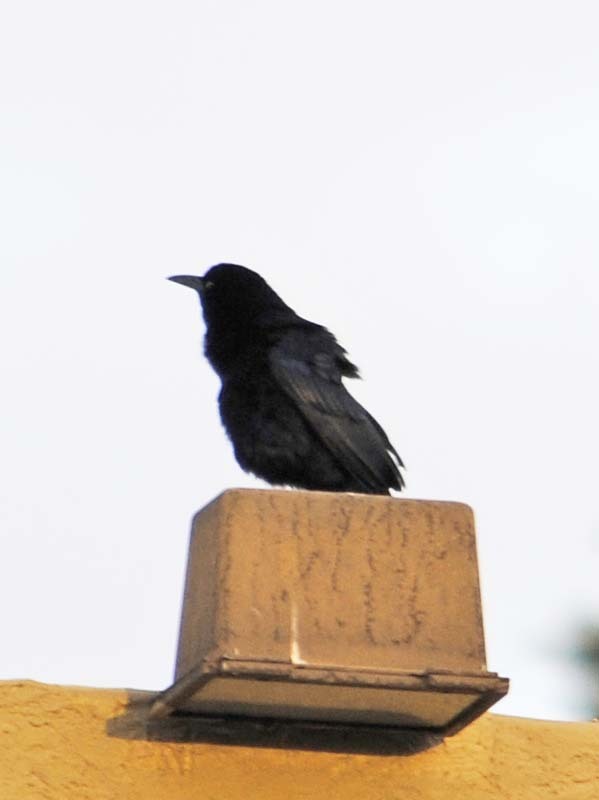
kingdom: Animalia
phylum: Chordata
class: Aves
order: Passeriformes
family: Icteridae
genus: Quiscalus
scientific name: Quiscalus mexicanus
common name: Great-tailed grackle
